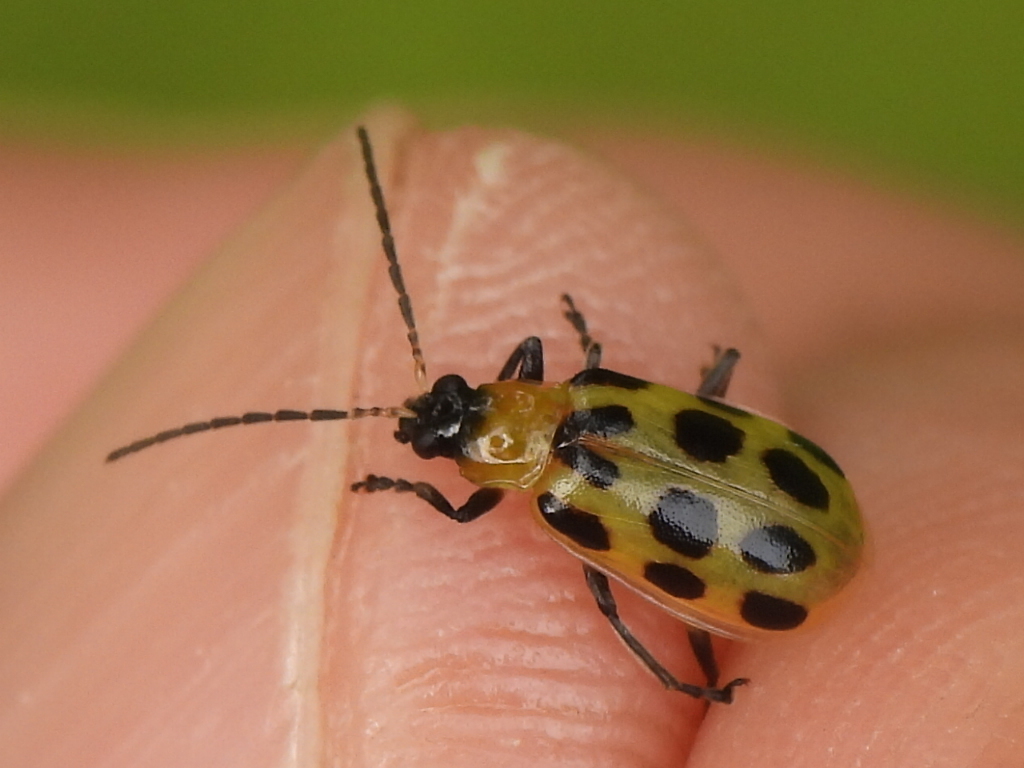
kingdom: Animalia
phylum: Arthropoda
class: Insecta
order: Coleoptera
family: Chrysomelidae
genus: Diabrotica
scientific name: Diabrotica undecimpunctata
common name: Spotted cucumber beetle
